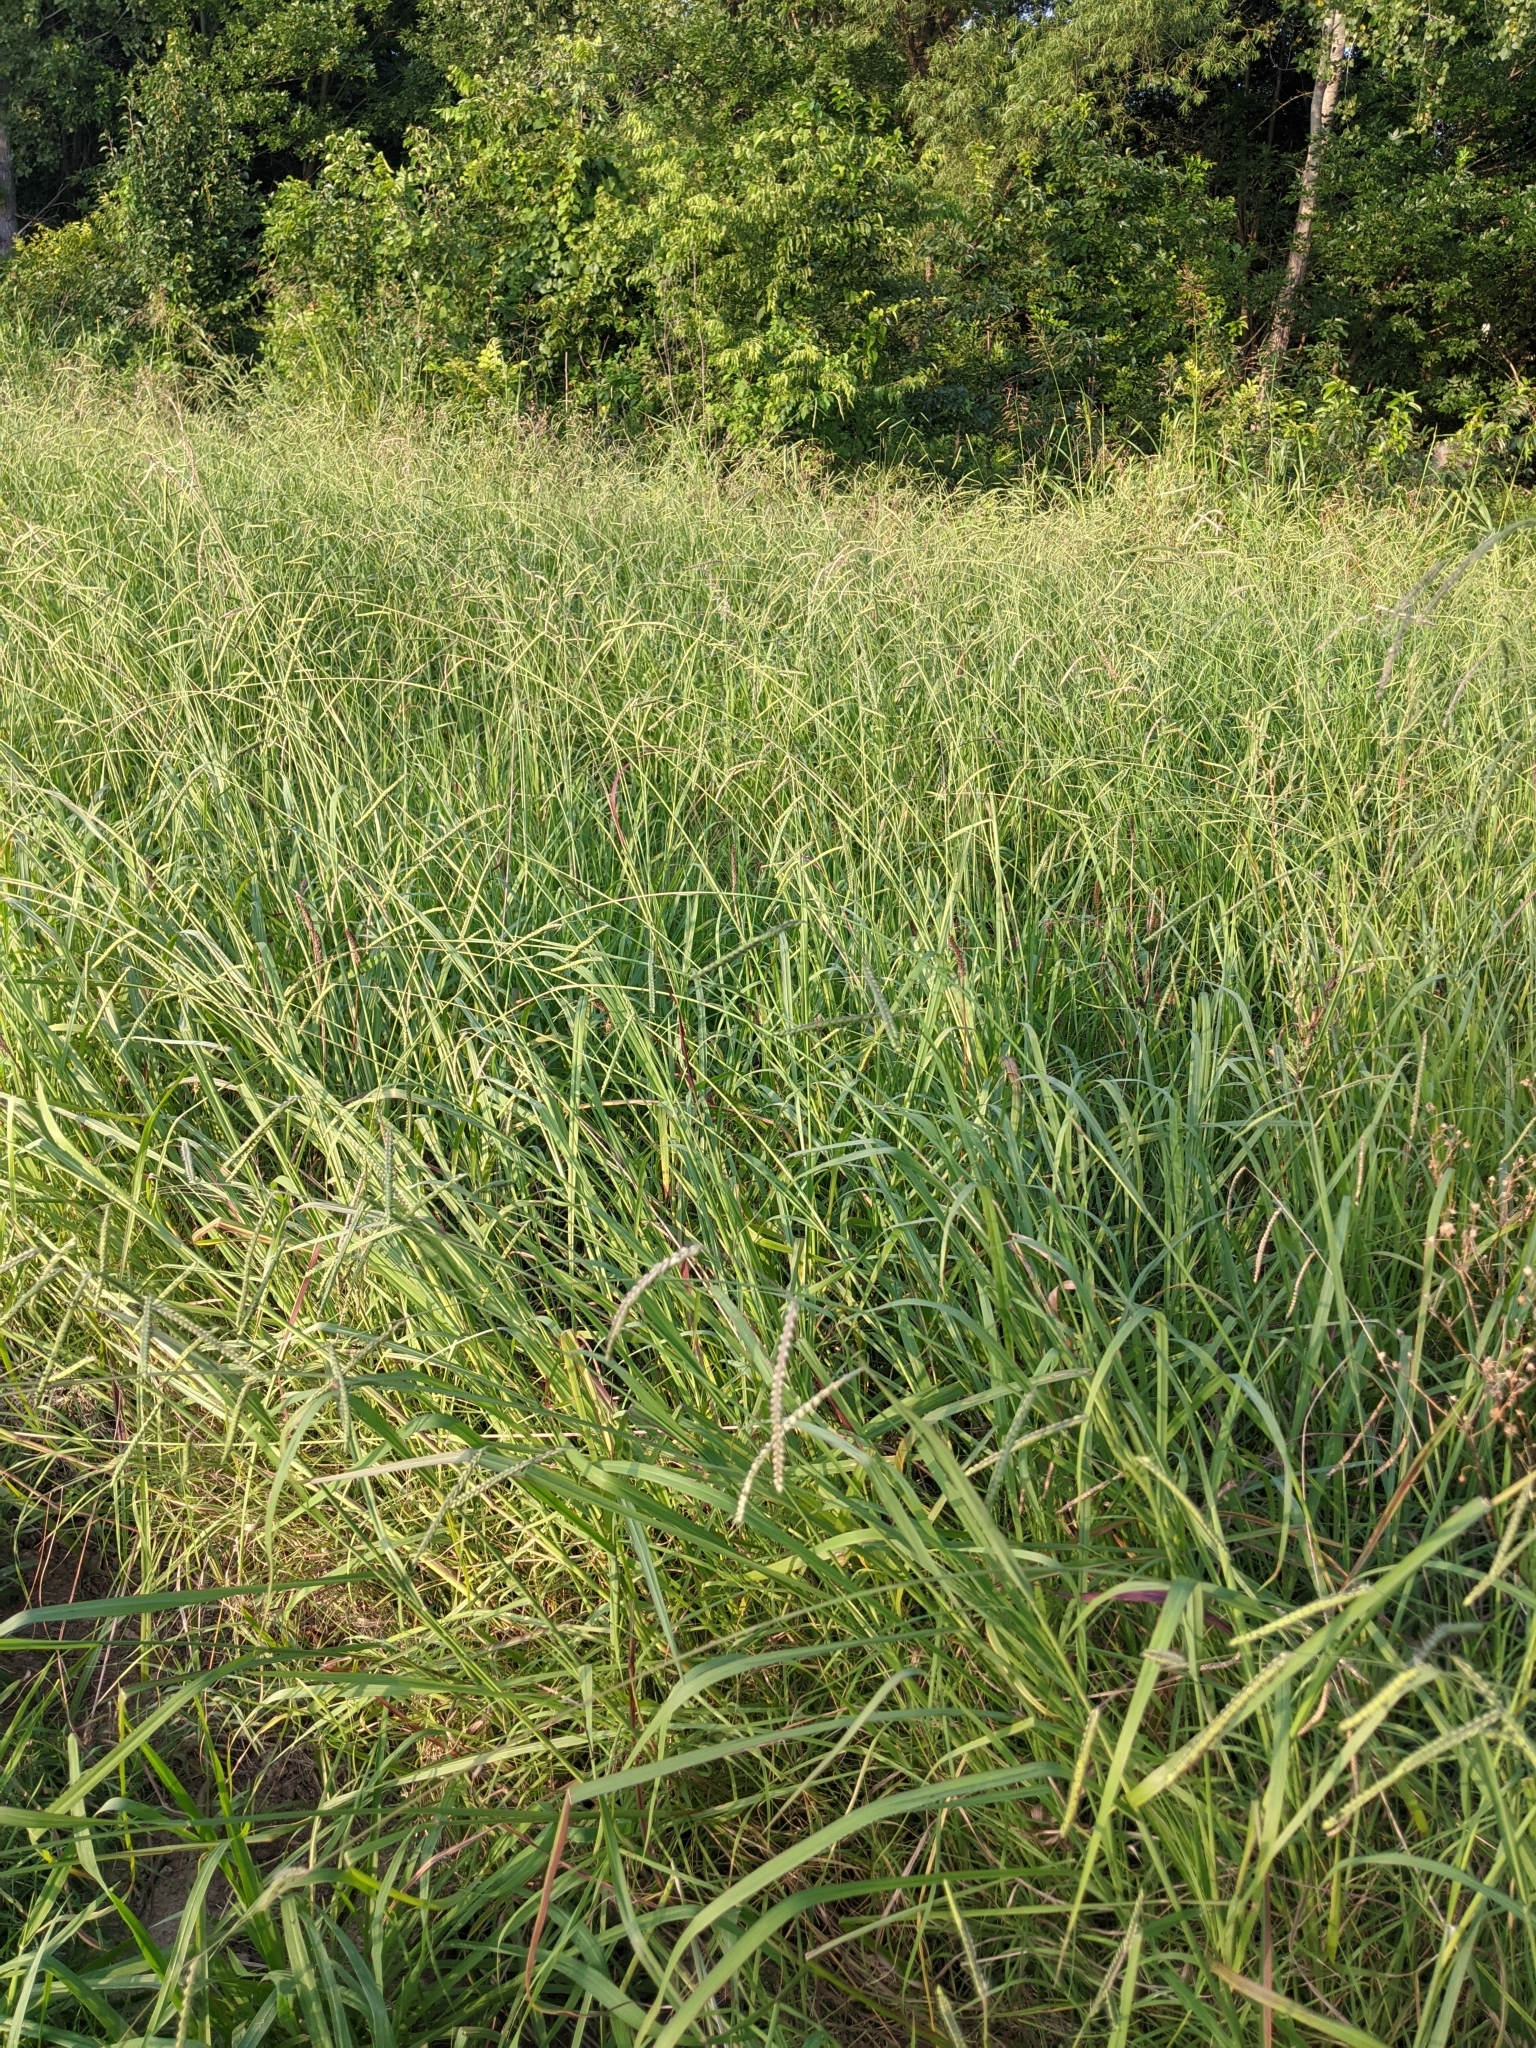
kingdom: Plantae
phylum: Tracheophyta
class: Liliopsida
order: Poales
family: Poaceae
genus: Paspalum
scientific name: Paspalum dilatatum
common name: Dallisgrass
